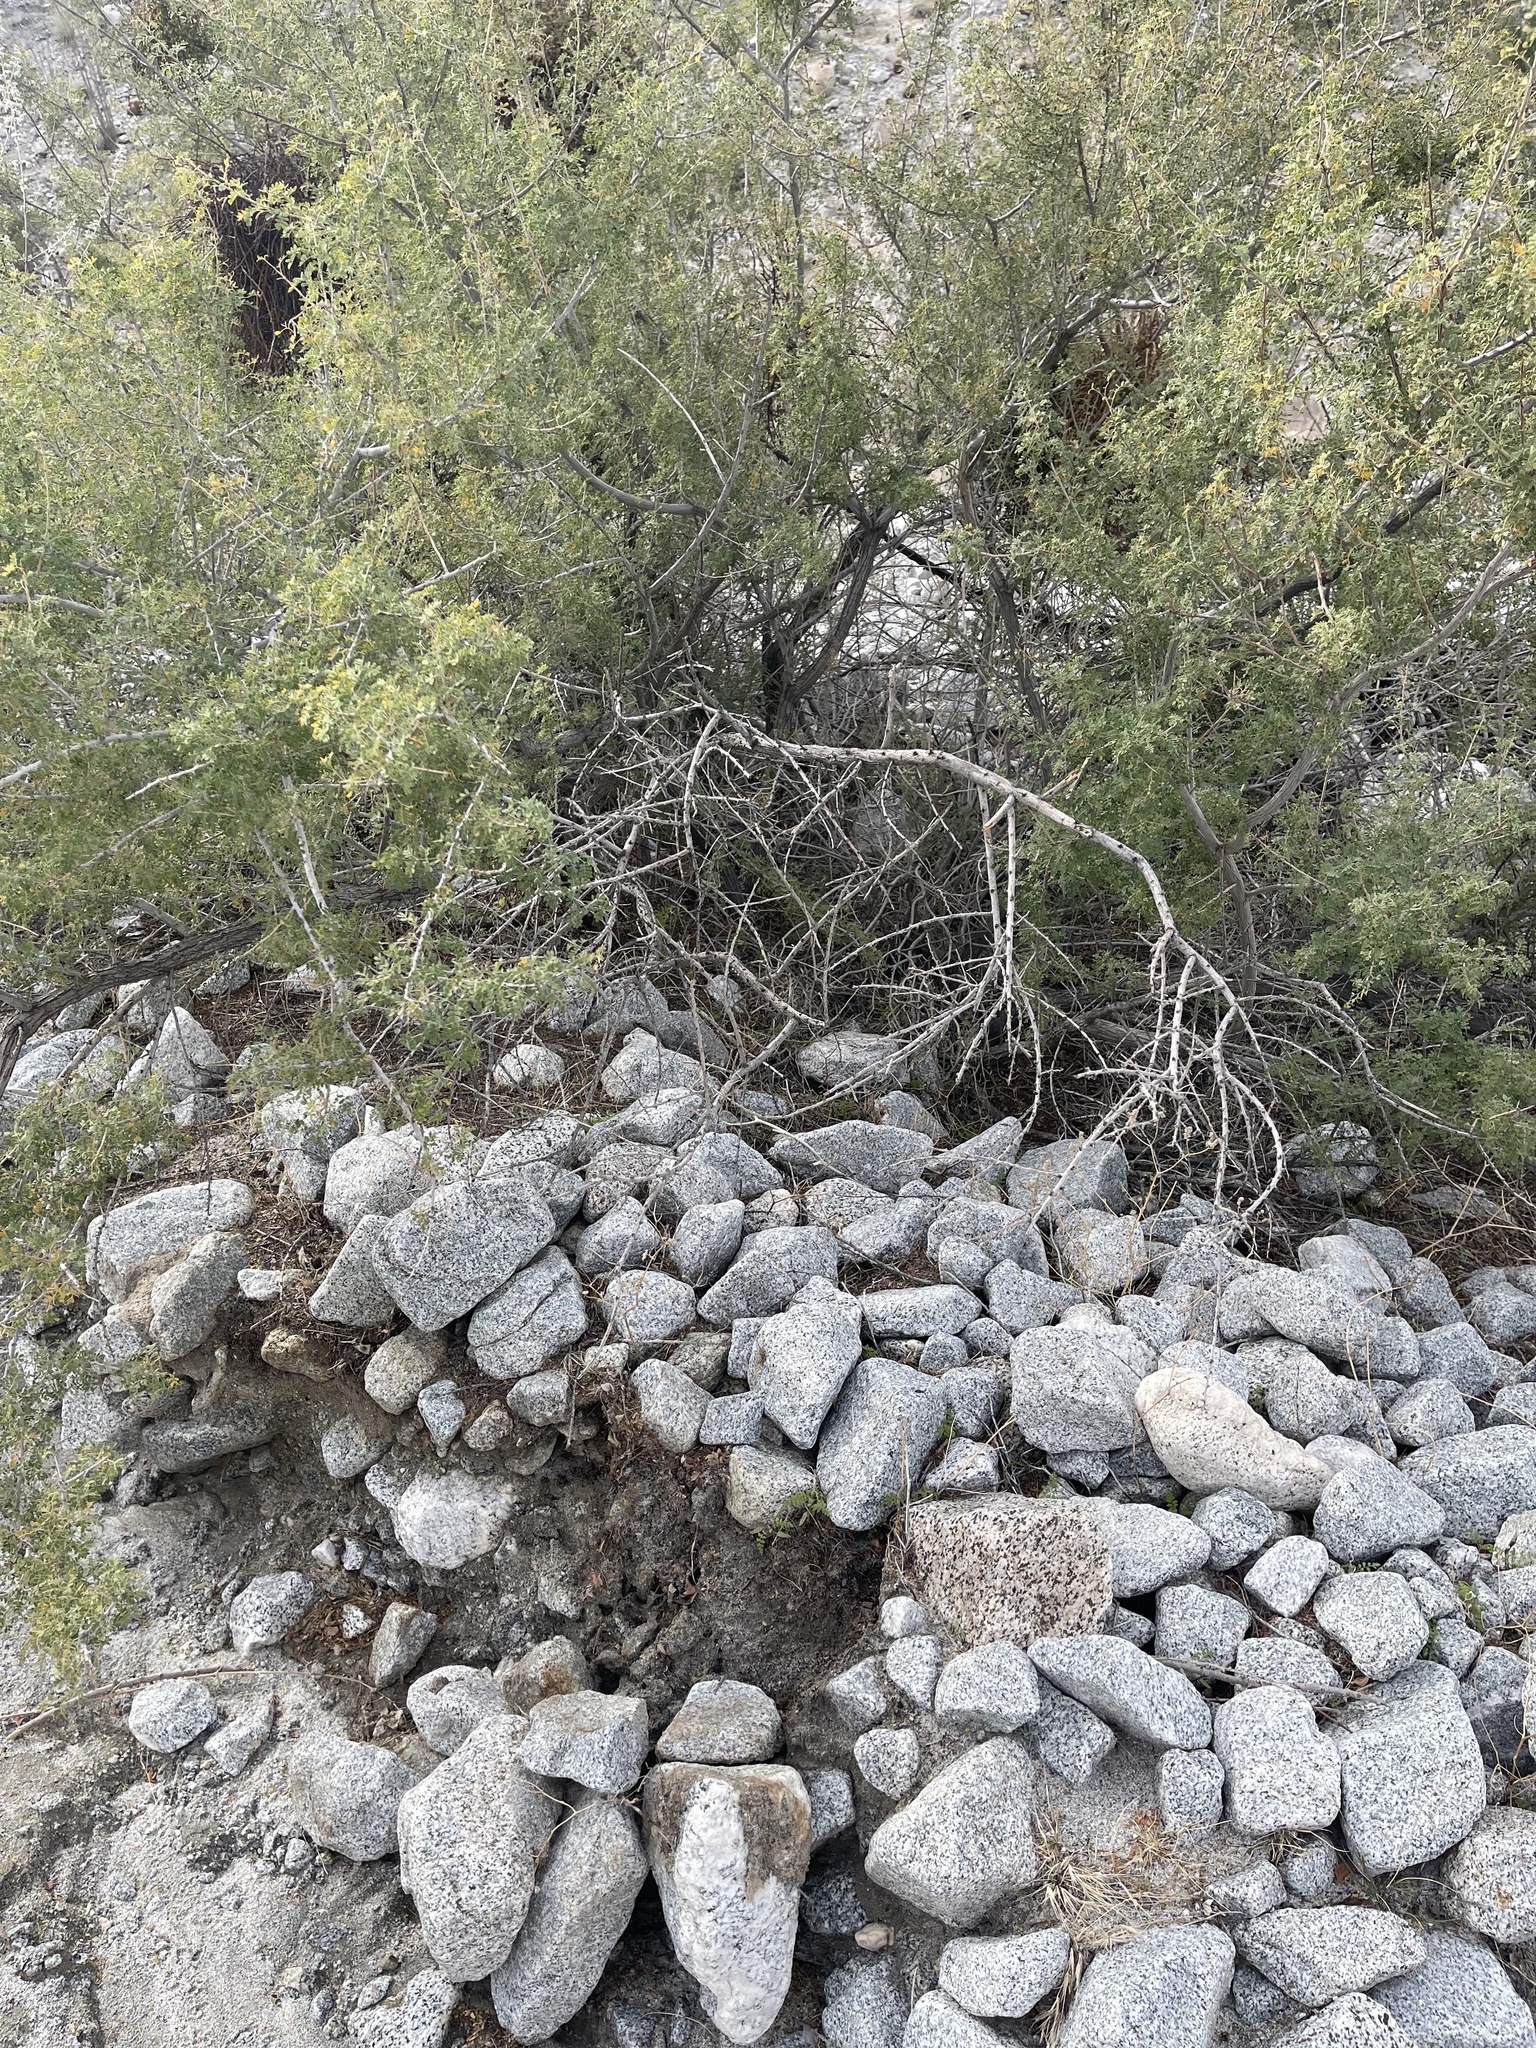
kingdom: Plantae
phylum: Tracheophyta
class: Magnoliopsida
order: Boraginales
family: Hydrophyllaceae
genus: Phacelia
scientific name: Phacelia distans
